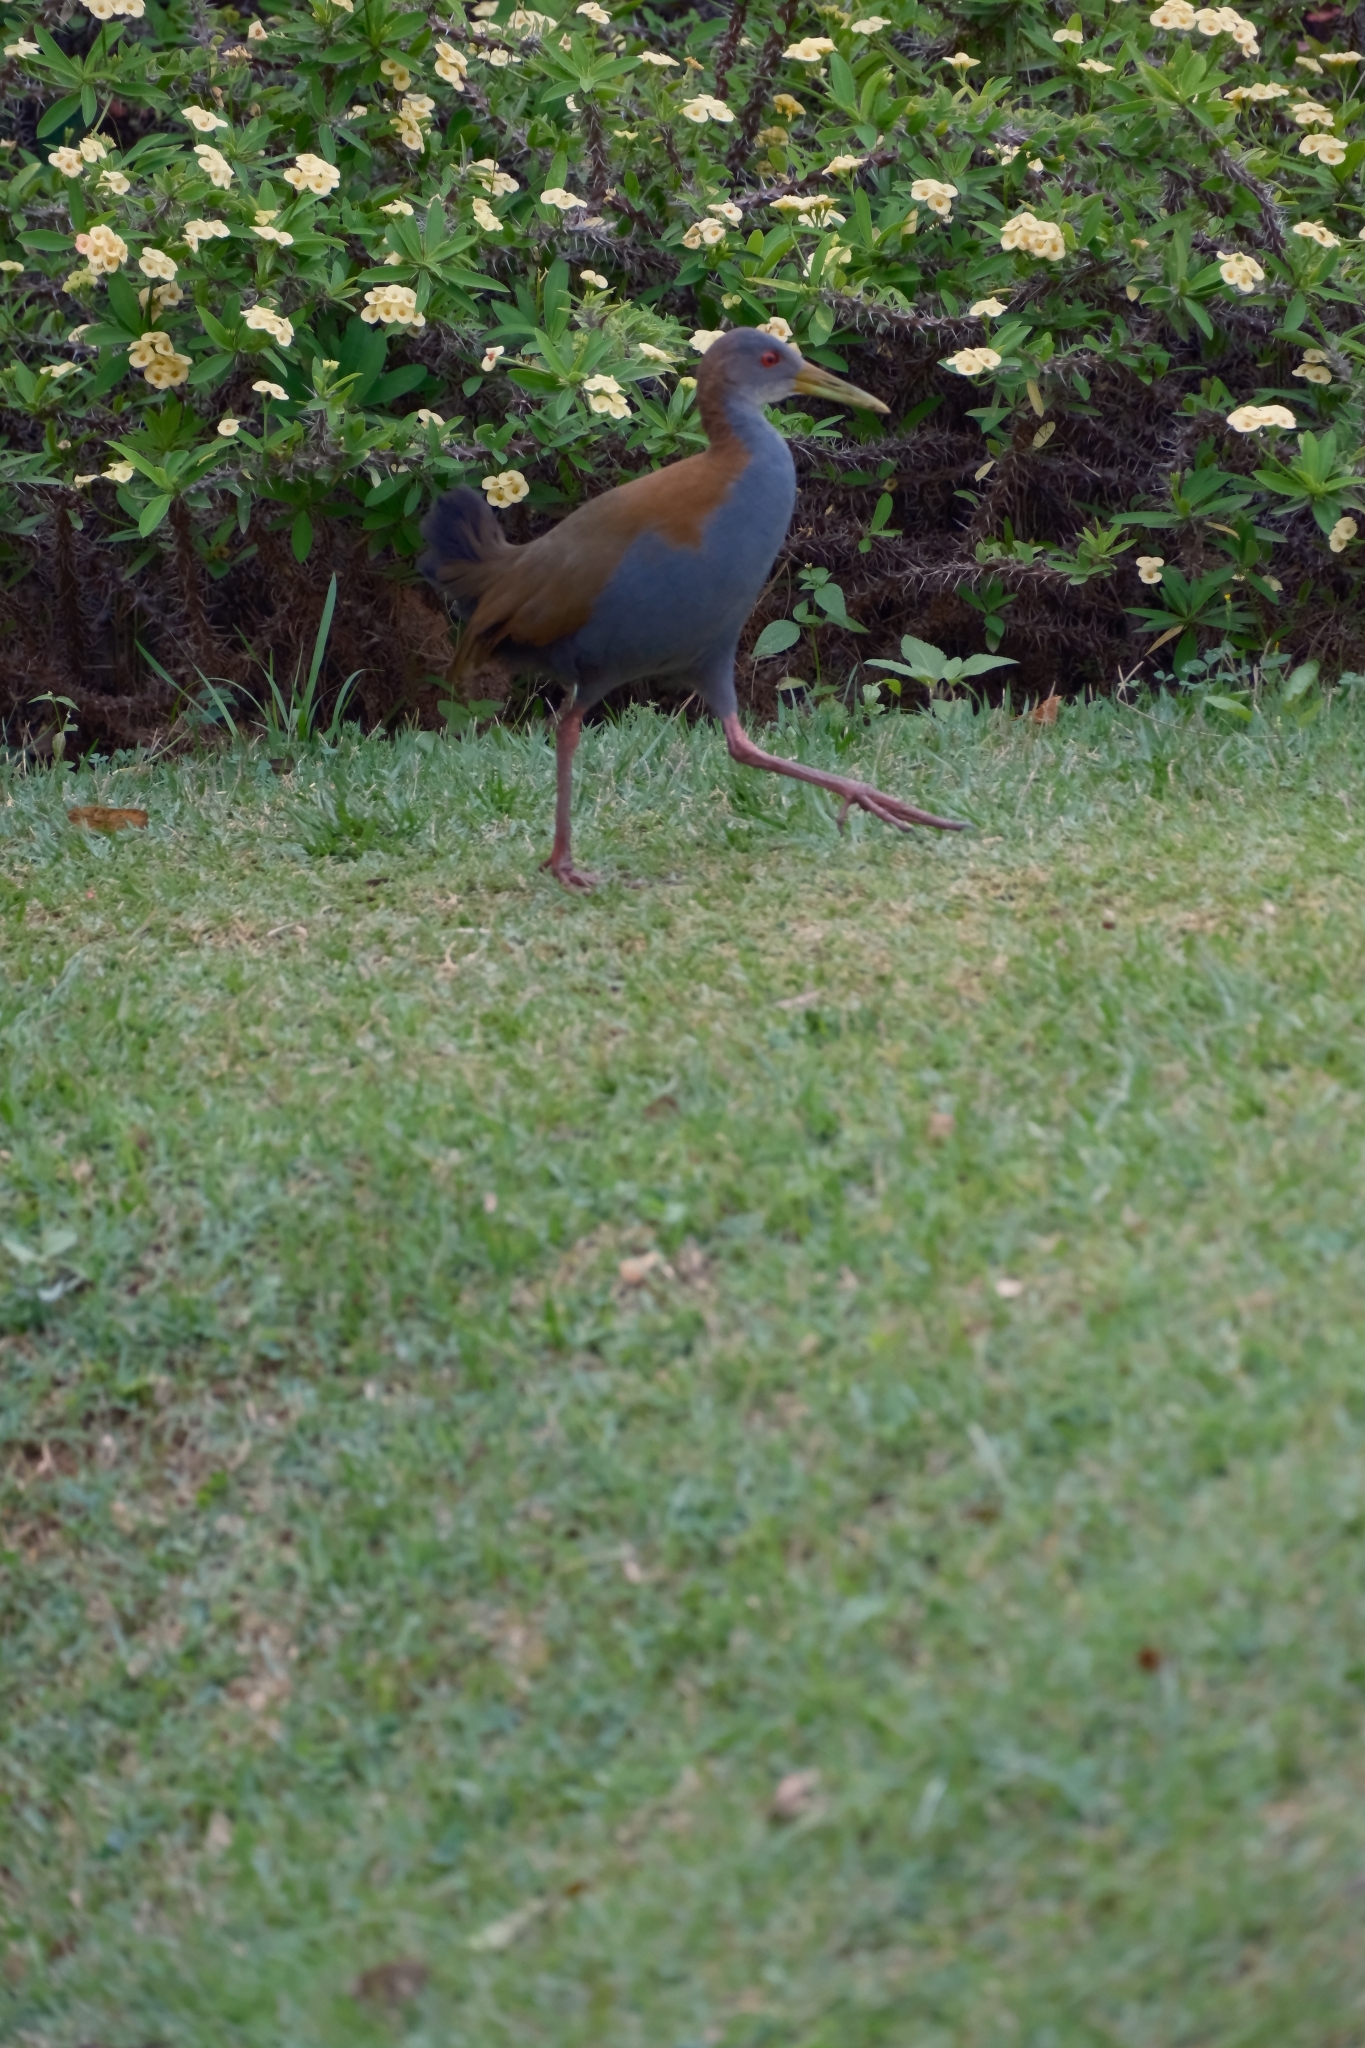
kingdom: Animalia
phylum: Chordata
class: Aves
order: Gruiformes
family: Rallidae
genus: Aramides
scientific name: Aramides saracura
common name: Slaty-breasted wood rail
